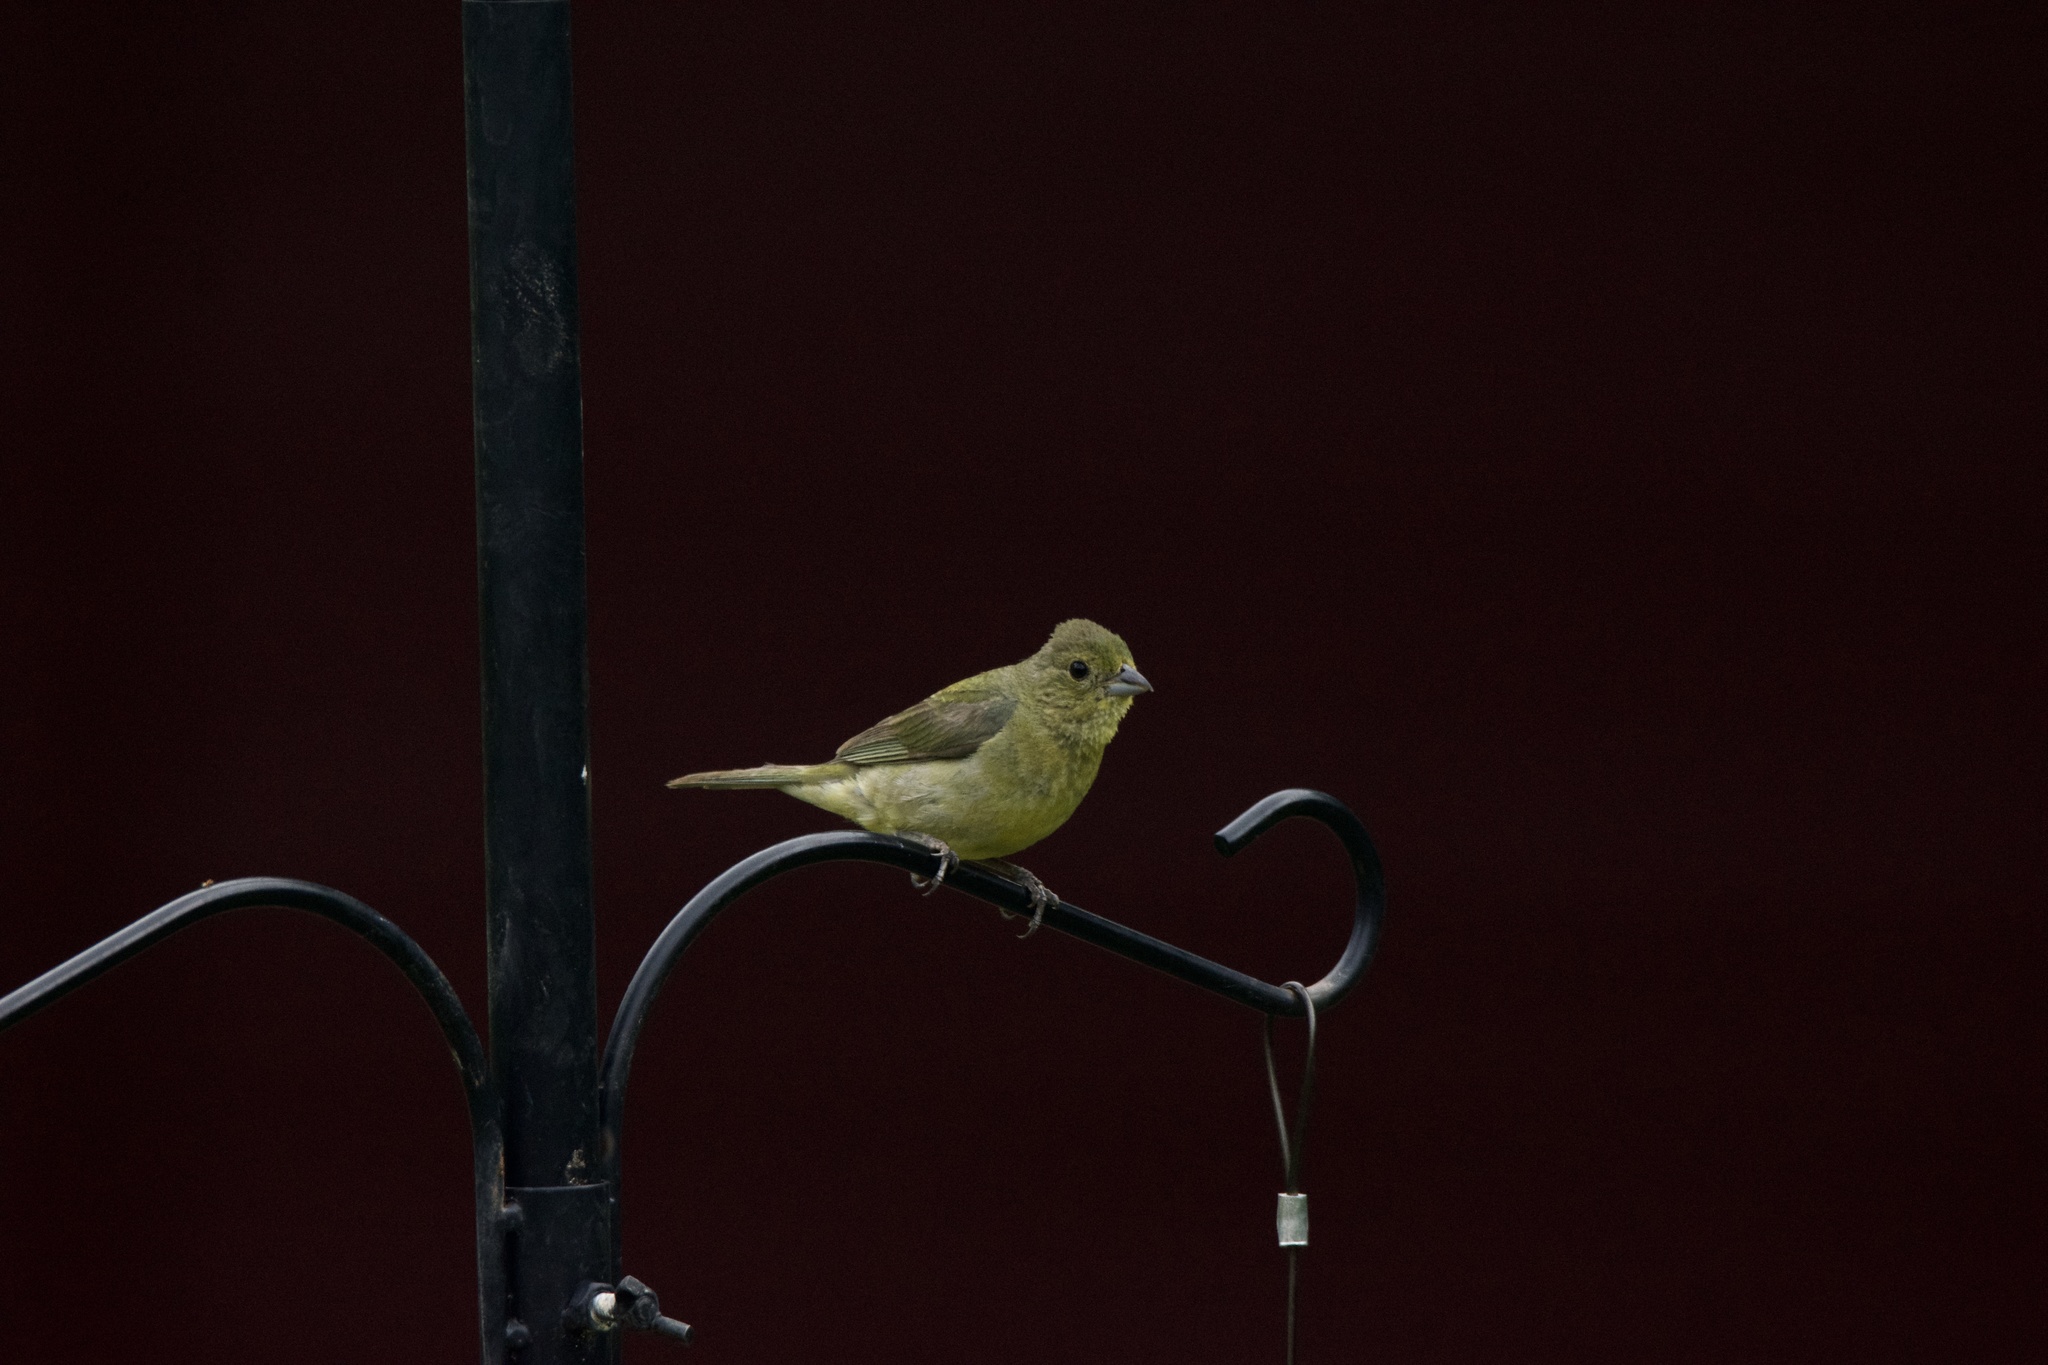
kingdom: Animalia
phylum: Chordata
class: Aves
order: Passeriformes
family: Cardinalidae
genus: Passerina
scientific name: Passerina ciris
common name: Painted bunting
